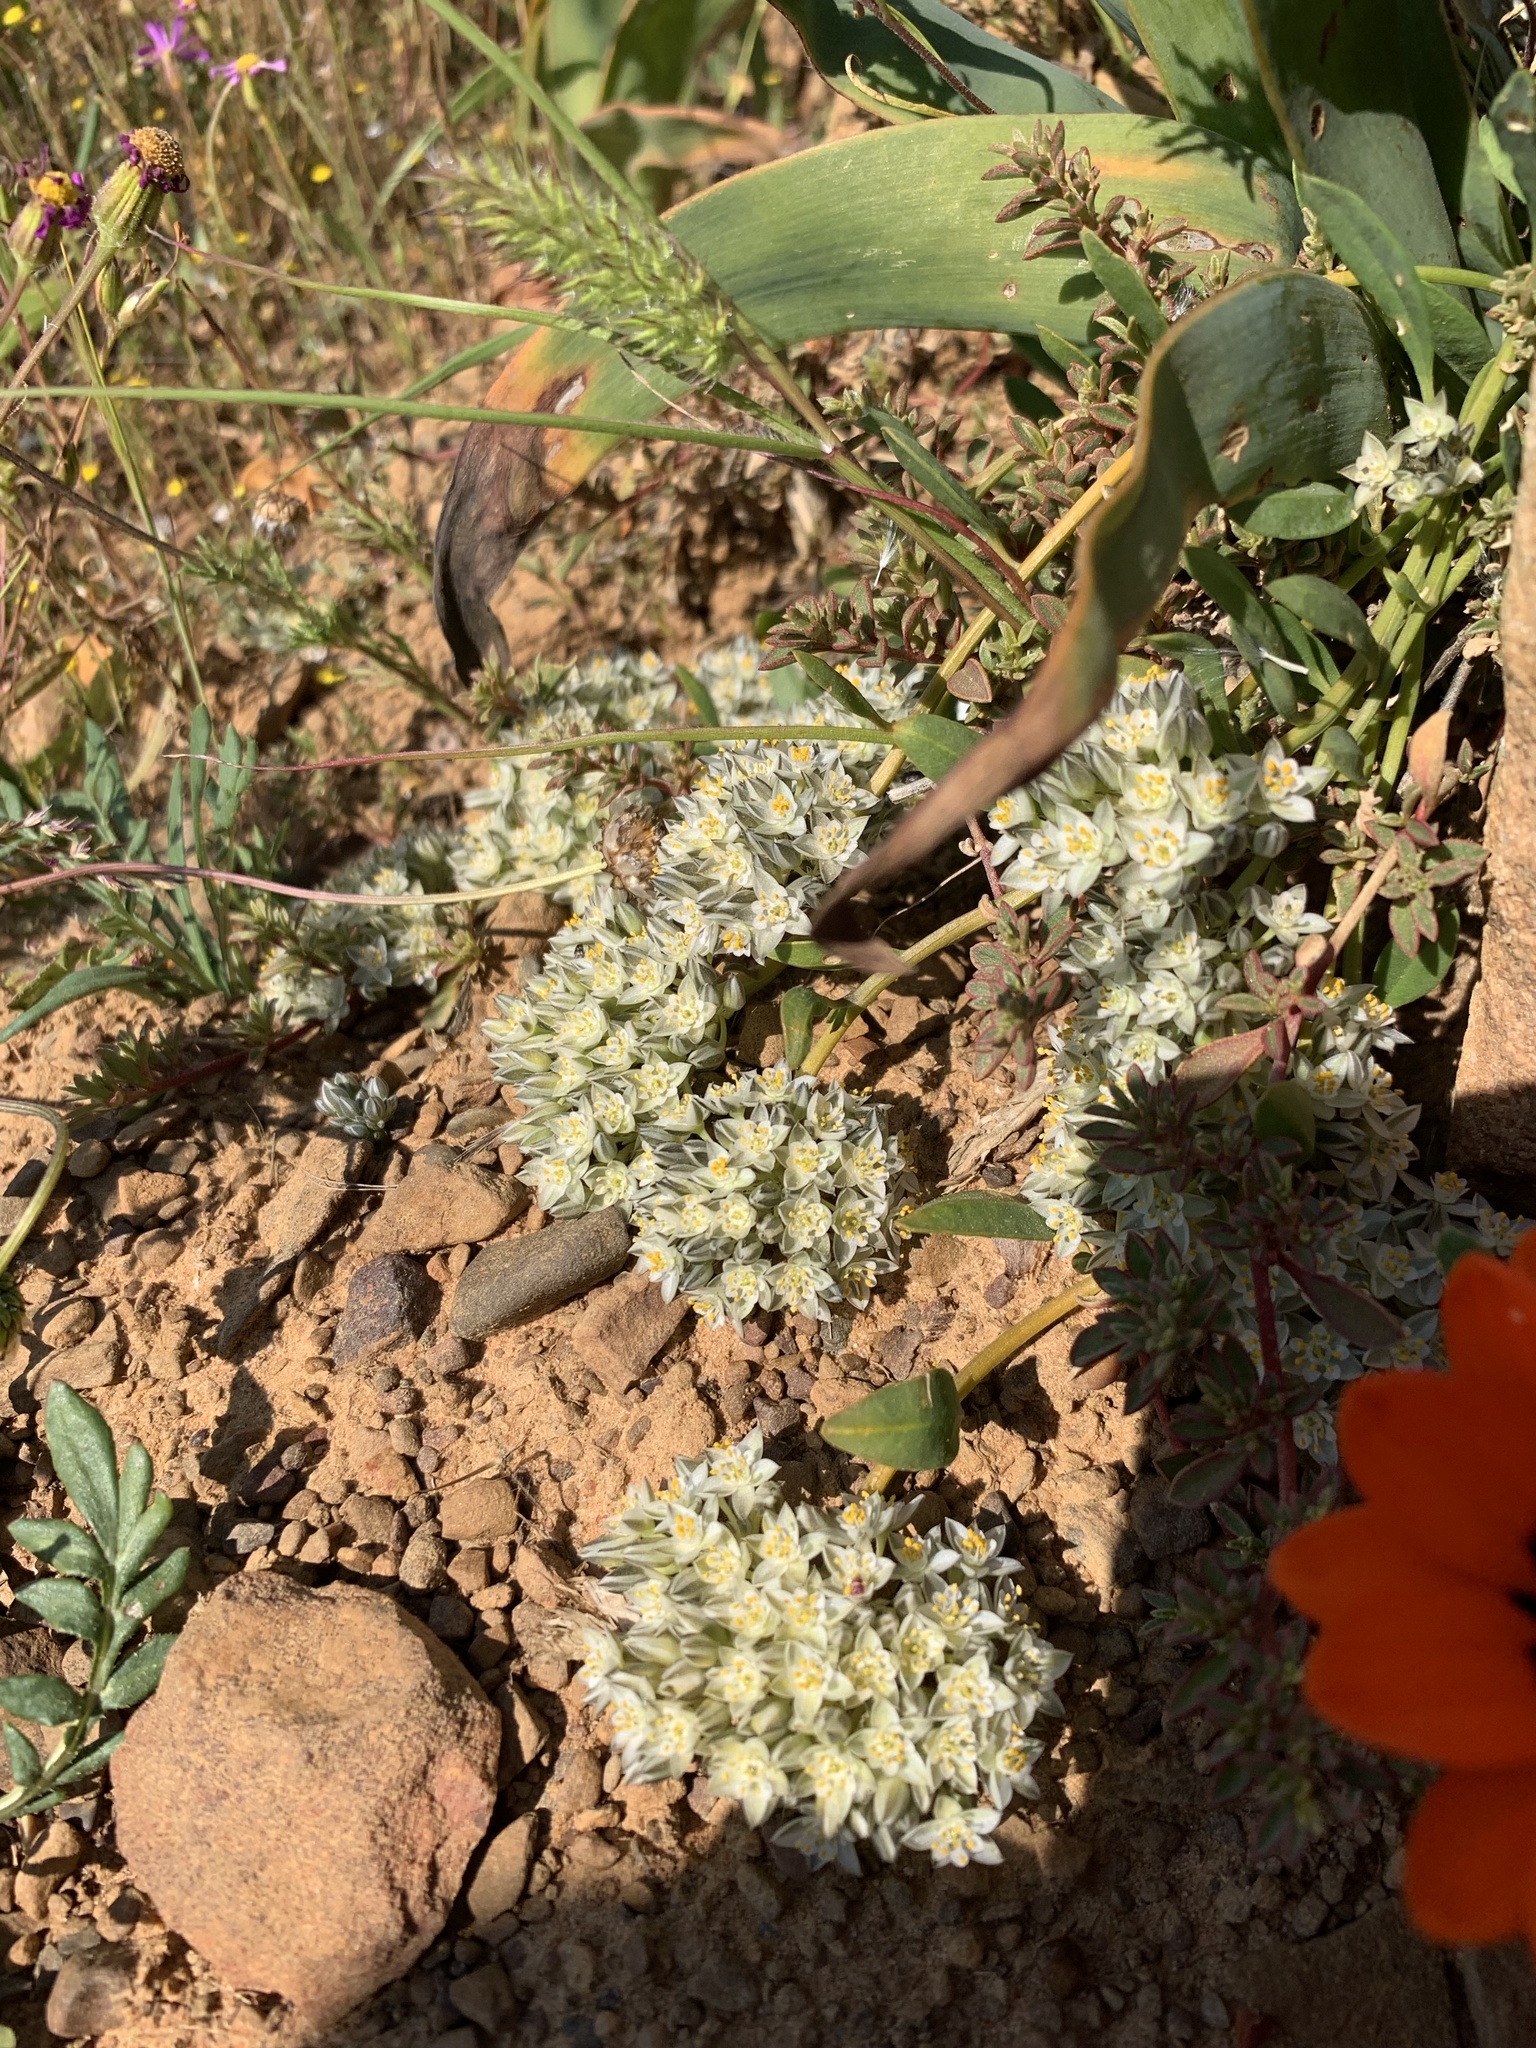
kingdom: Plantae
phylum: Tracheophyta
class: Magnoliopsida
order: Caryophyllales
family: Limeaceae
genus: Limeum
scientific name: Limeum africanum
